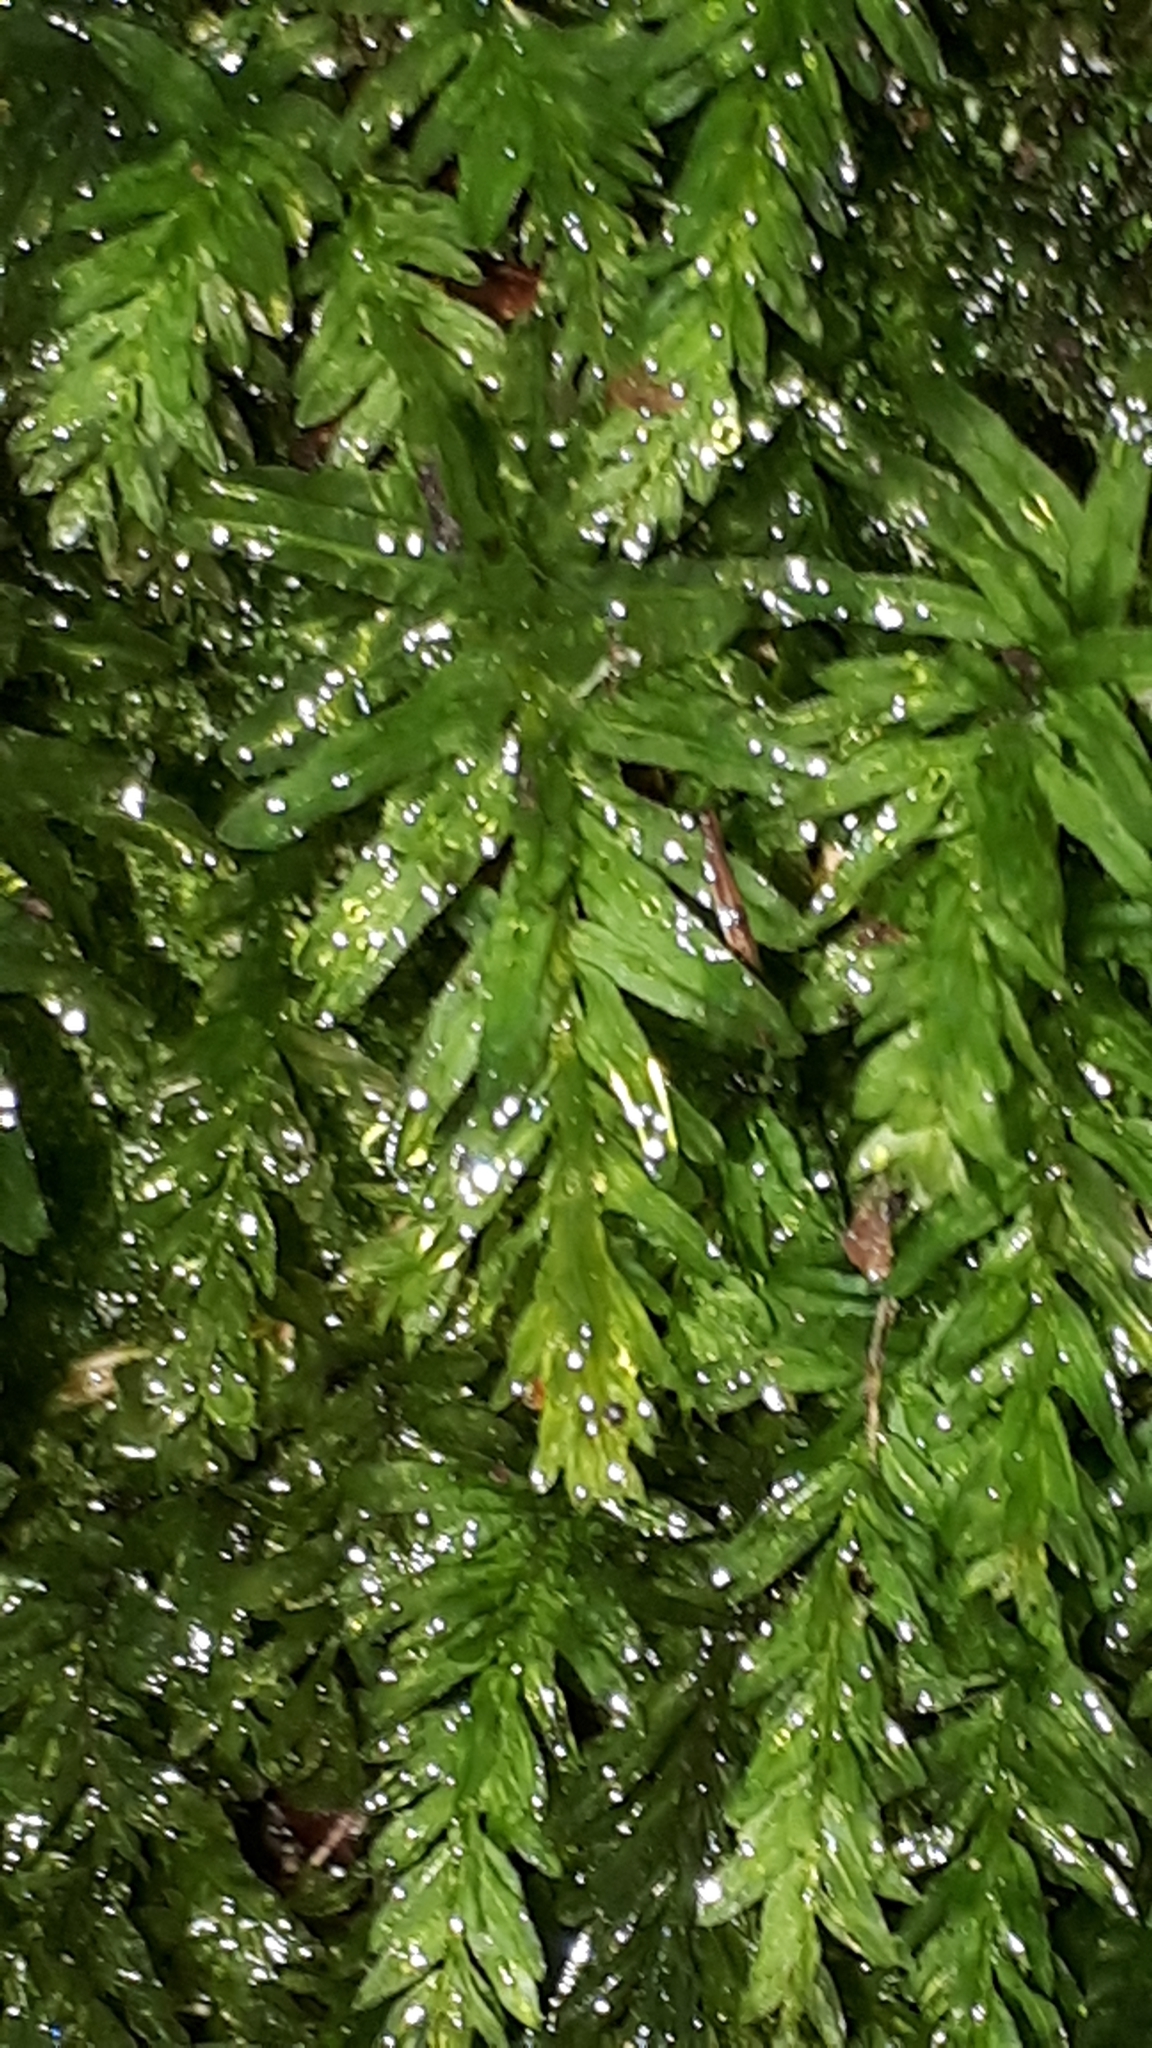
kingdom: Plantae
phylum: Bryophyta
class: Bryopsida
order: Bryales
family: Mniaceae
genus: Plagiomnium
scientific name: Plagiomnium undulatum
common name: Hart's-tongue thyme-moss
